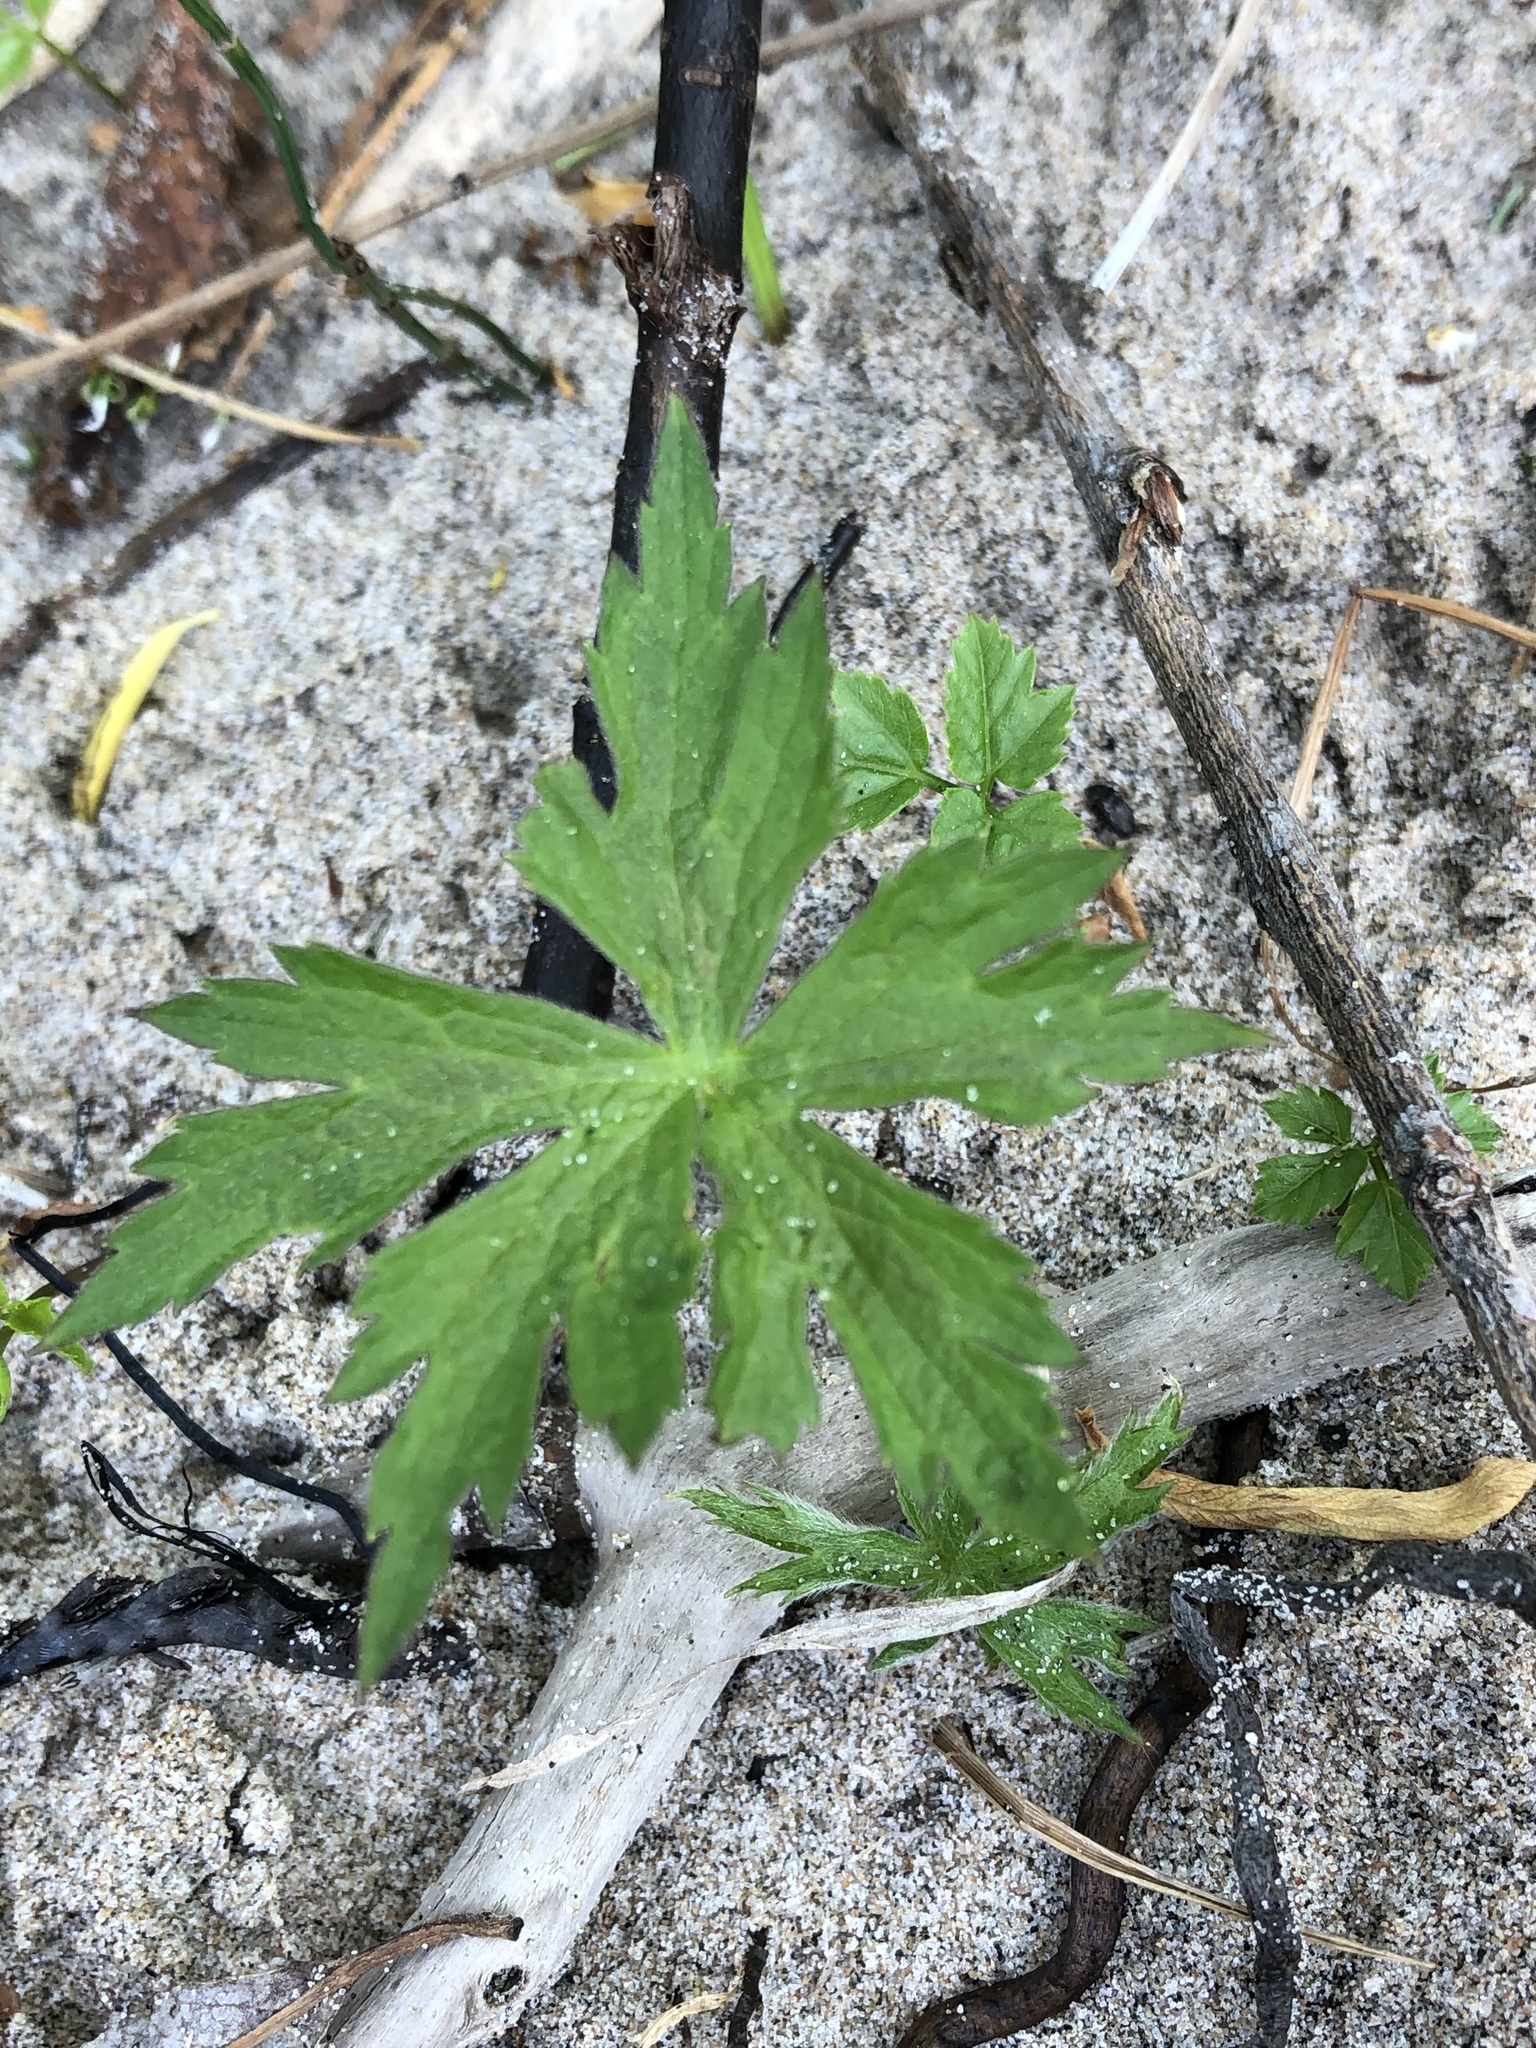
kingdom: Plantae
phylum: Tracheophyta
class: Magnoliopsida
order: Ranunculales
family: Ranunculaceae
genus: Anemonastrum
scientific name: Anemonastrum canadense
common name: Canada anemone
